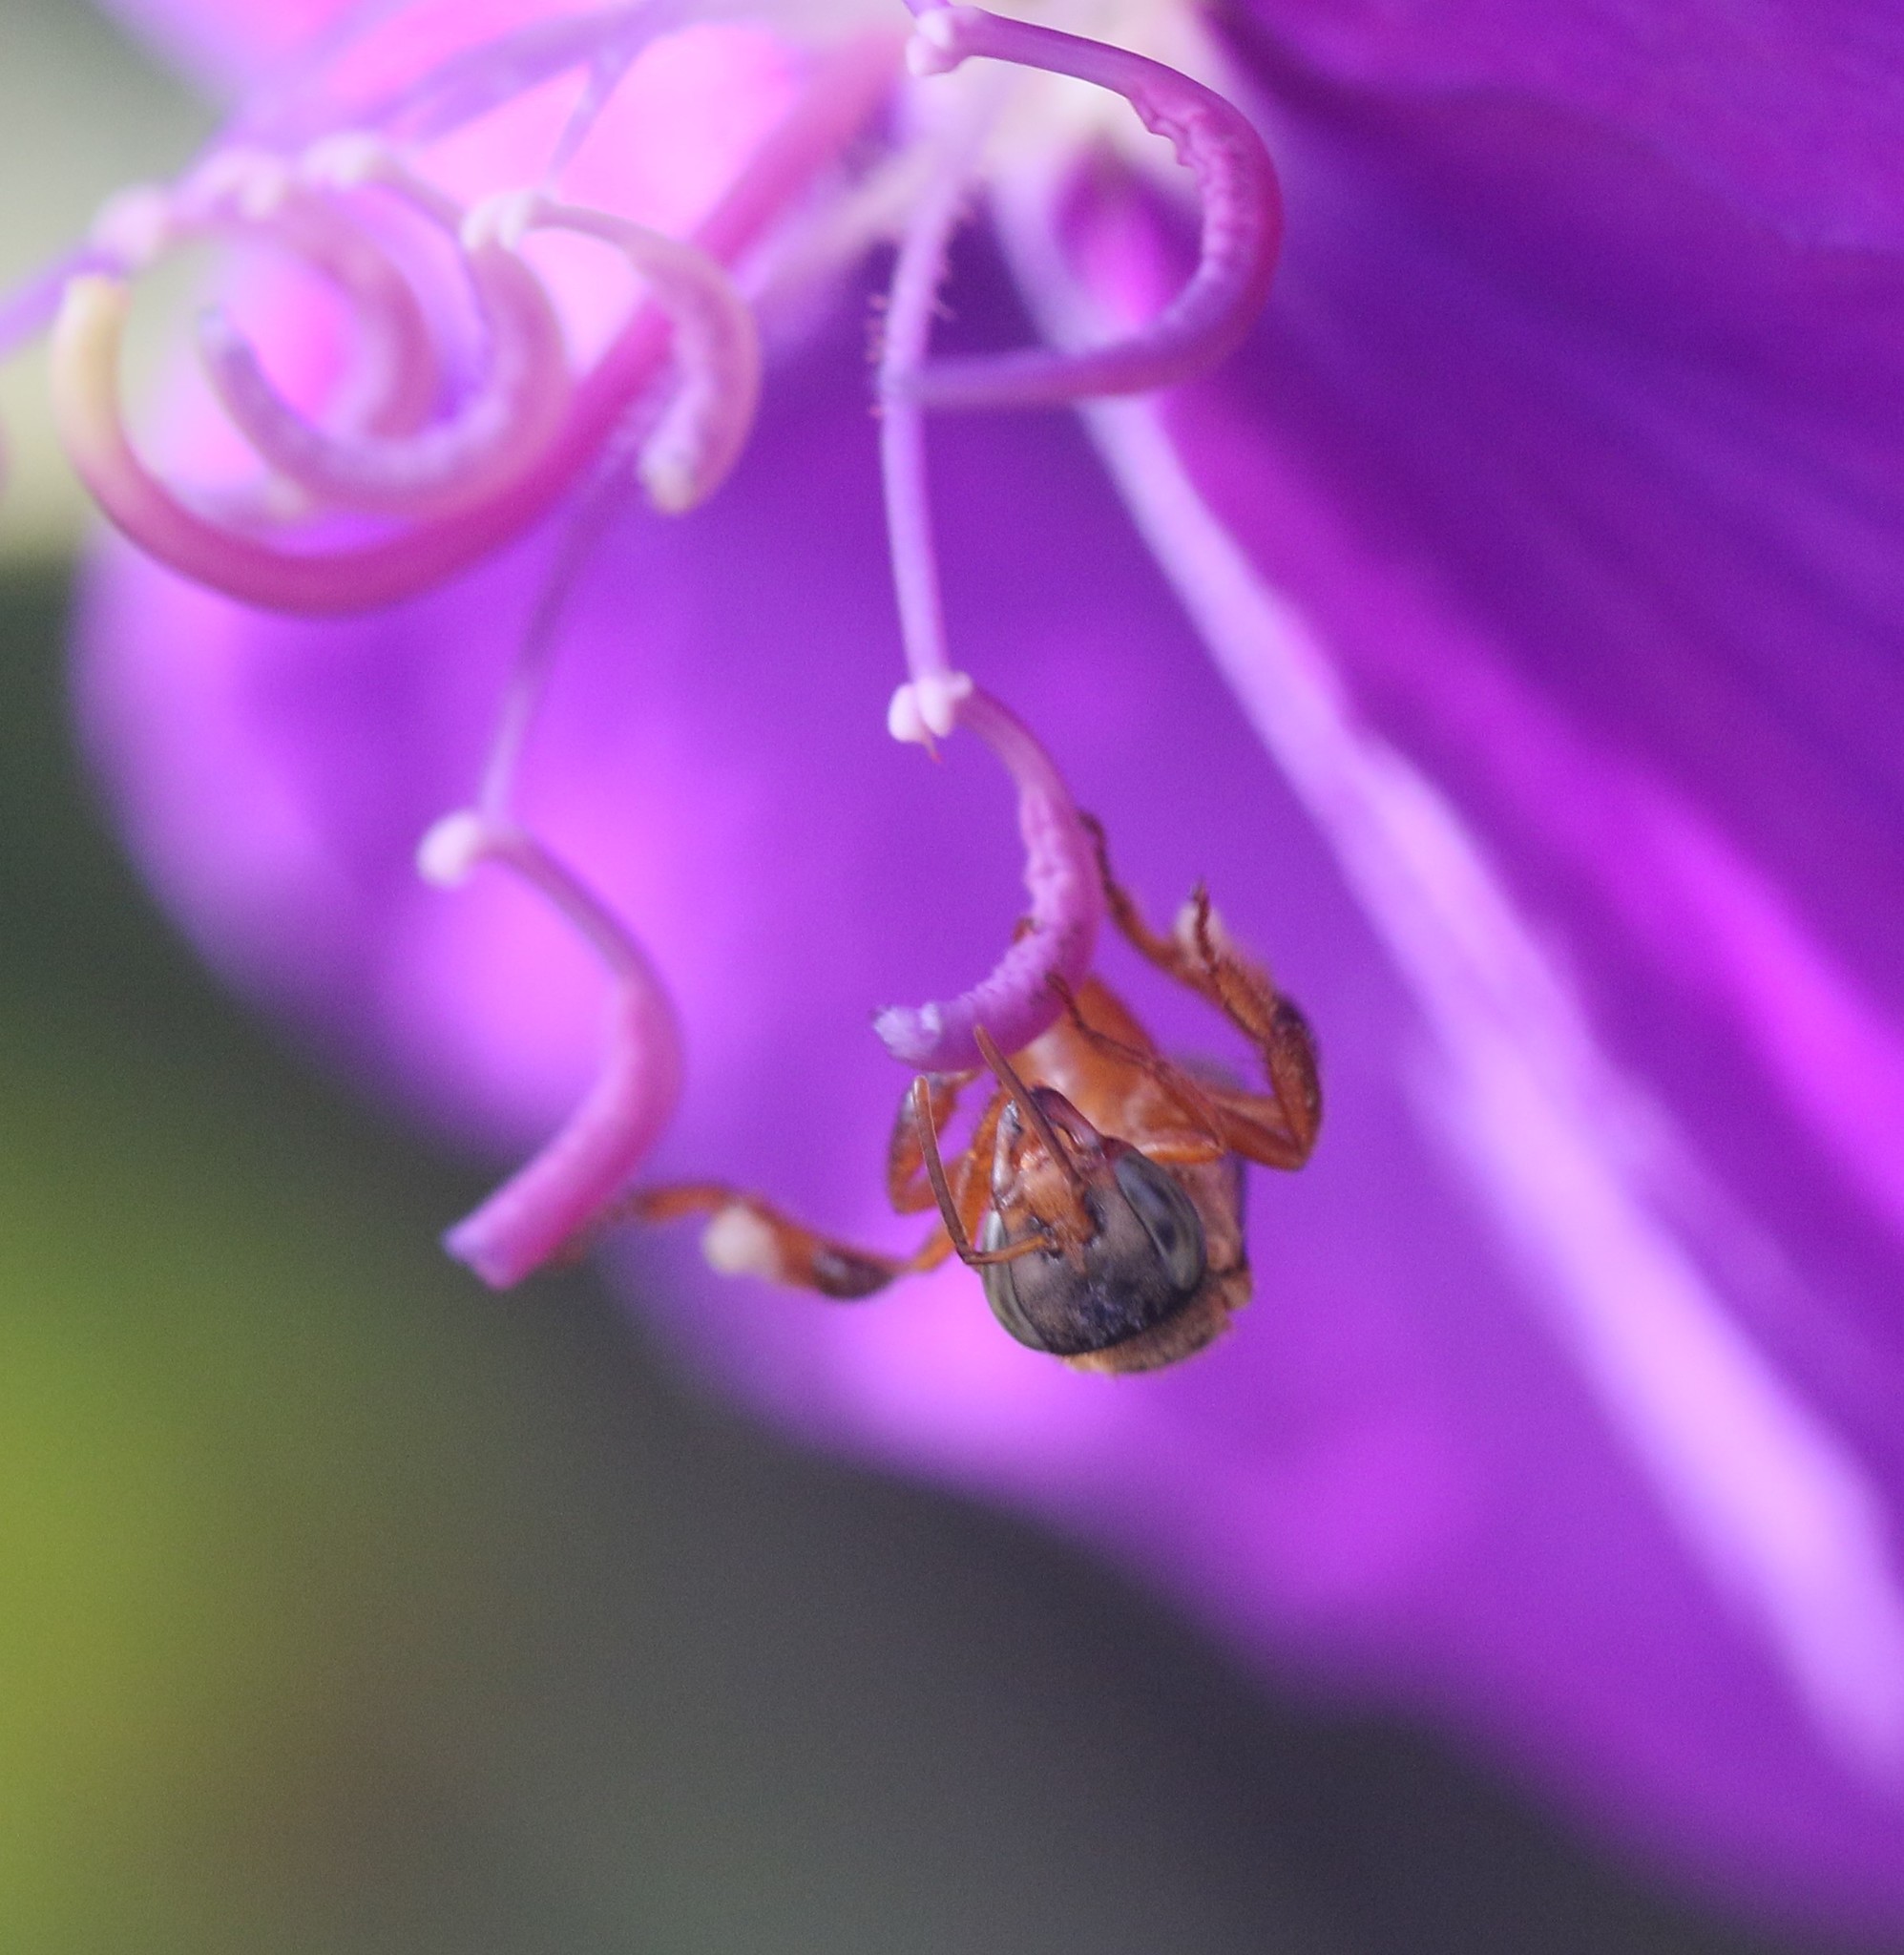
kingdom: Animalia
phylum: Arthropoda
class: Insecta
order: Hymenoptera
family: Apidae
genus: Trigona
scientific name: Trigona ferricauda
